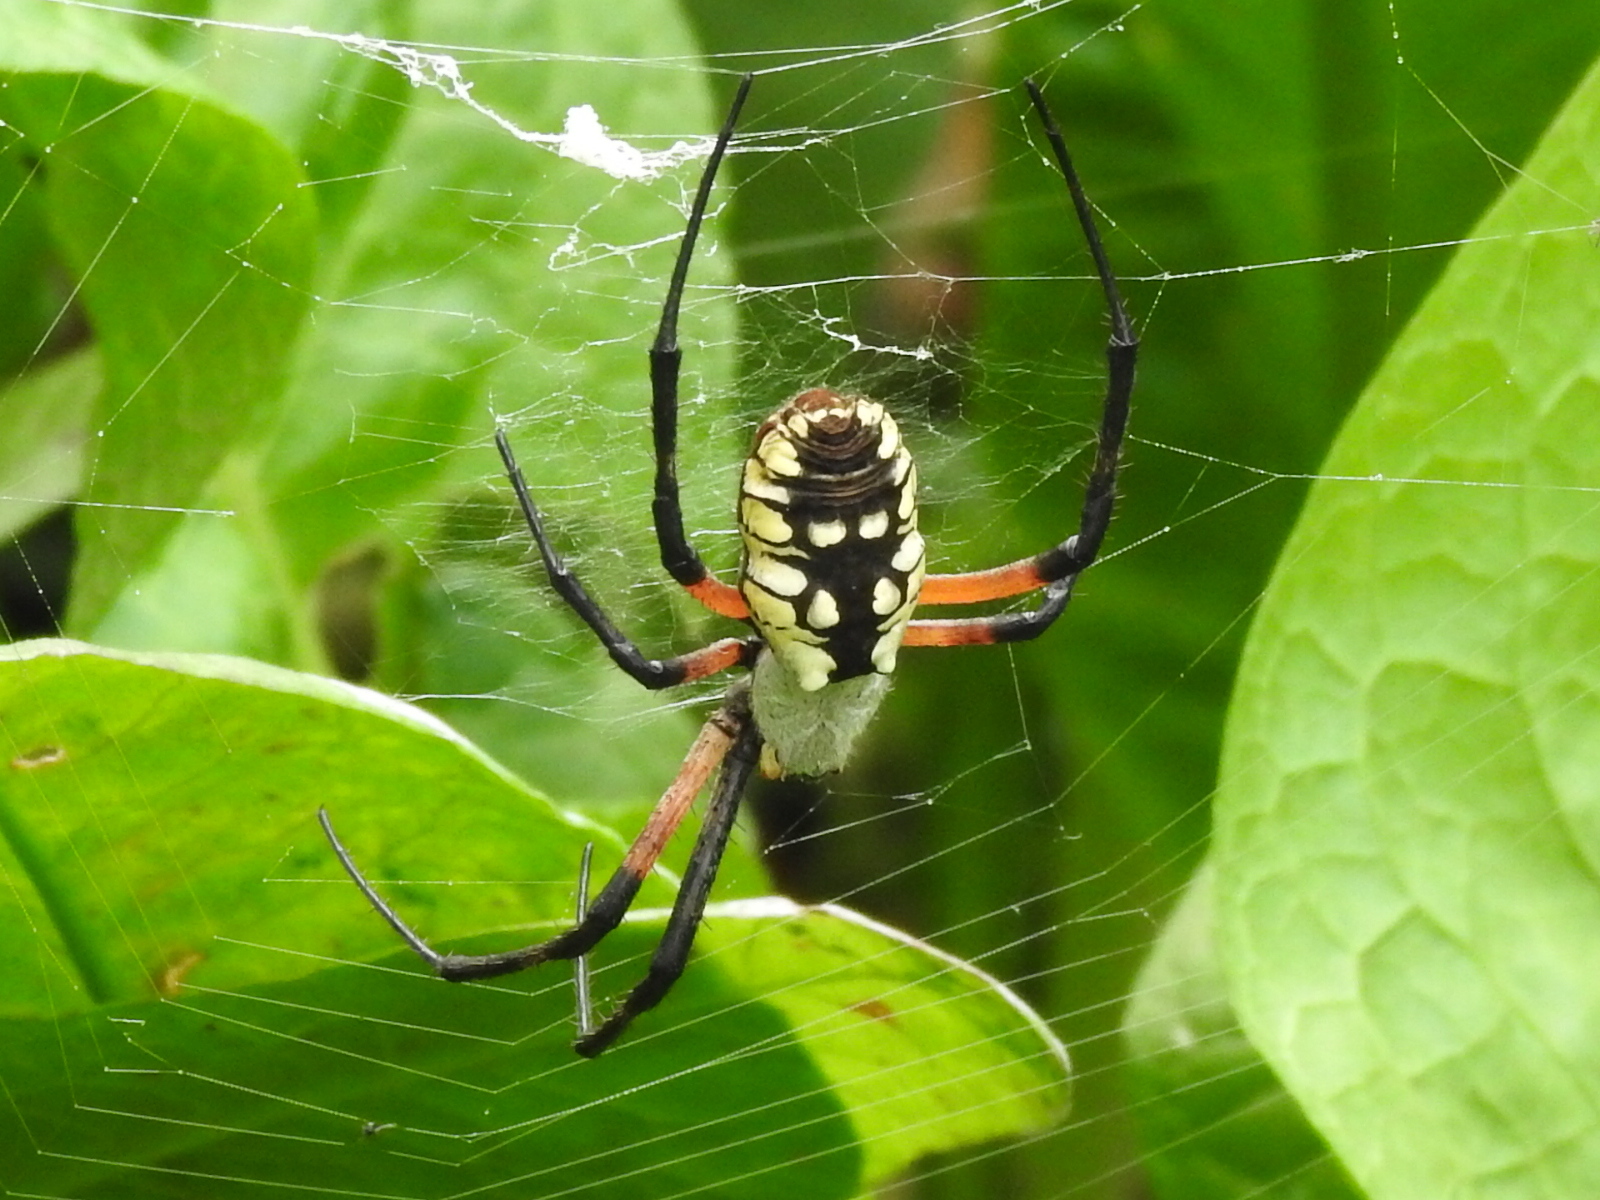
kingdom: Animalia
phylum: Arthropoda
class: Arachnida
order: Araneae
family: Araneidae
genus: Argiope
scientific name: Argiope aurantia
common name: Orb weavers
